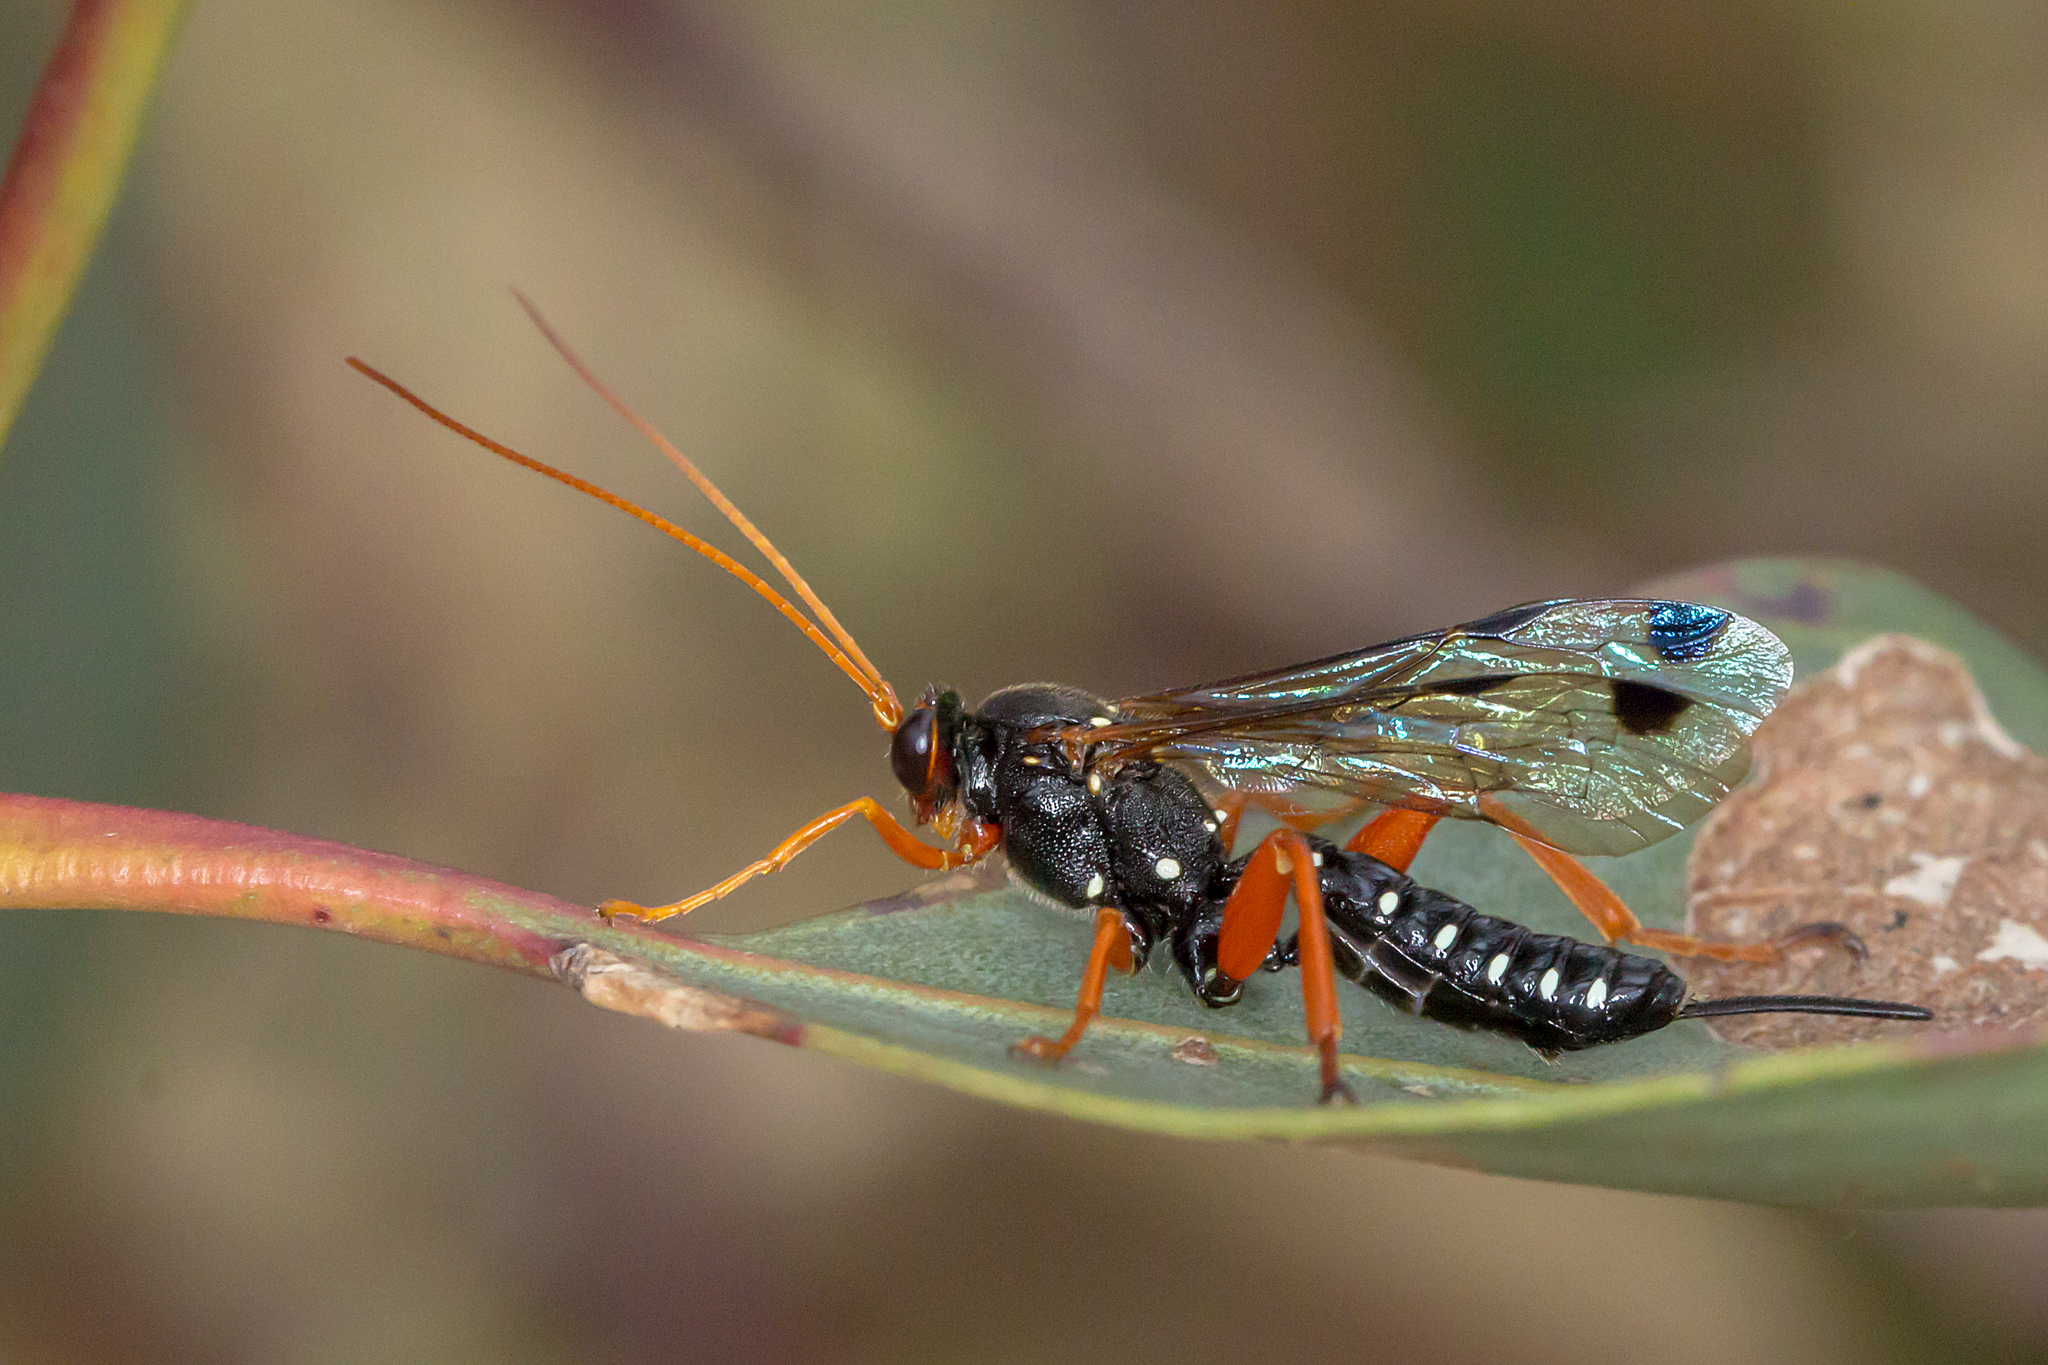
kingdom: Animalia
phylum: Arthropoda
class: Insecta
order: Hymenoptera
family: Ichneumonidae
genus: Echthromorpha
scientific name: Echthromorpha intricatoria
